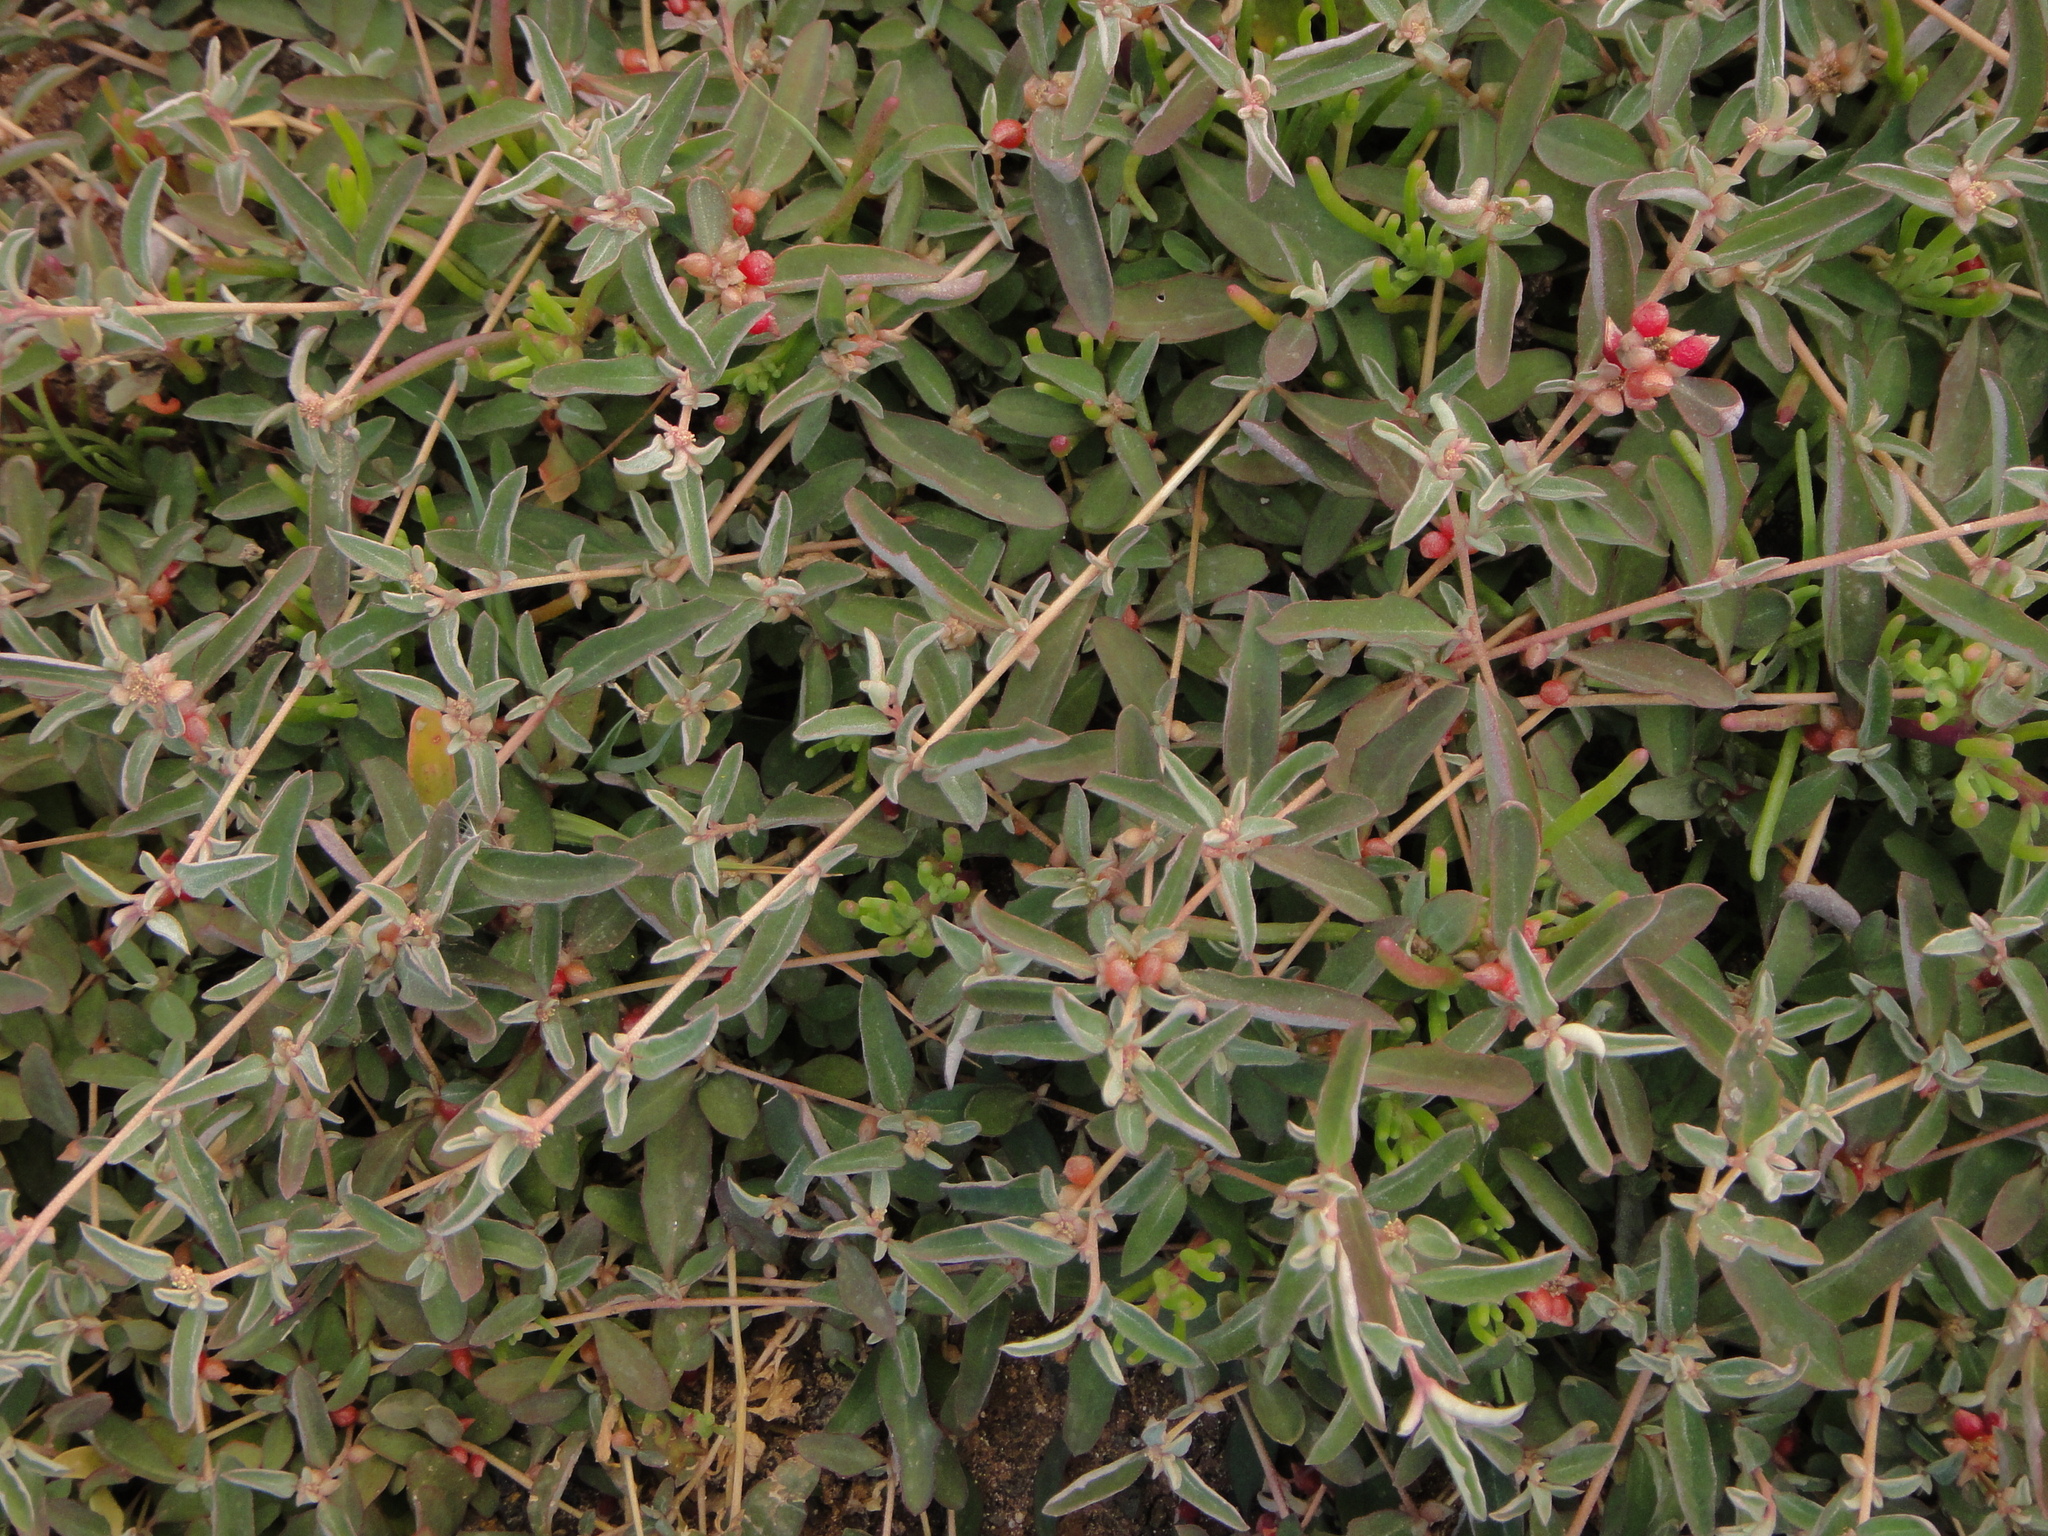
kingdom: Plantae
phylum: Tracheophyta
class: Magnoliopsida
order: Caryophyllales
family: Amaranthaceae
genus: Atriplex
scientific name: Atriplex semibaccata
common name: Australian saltbush
